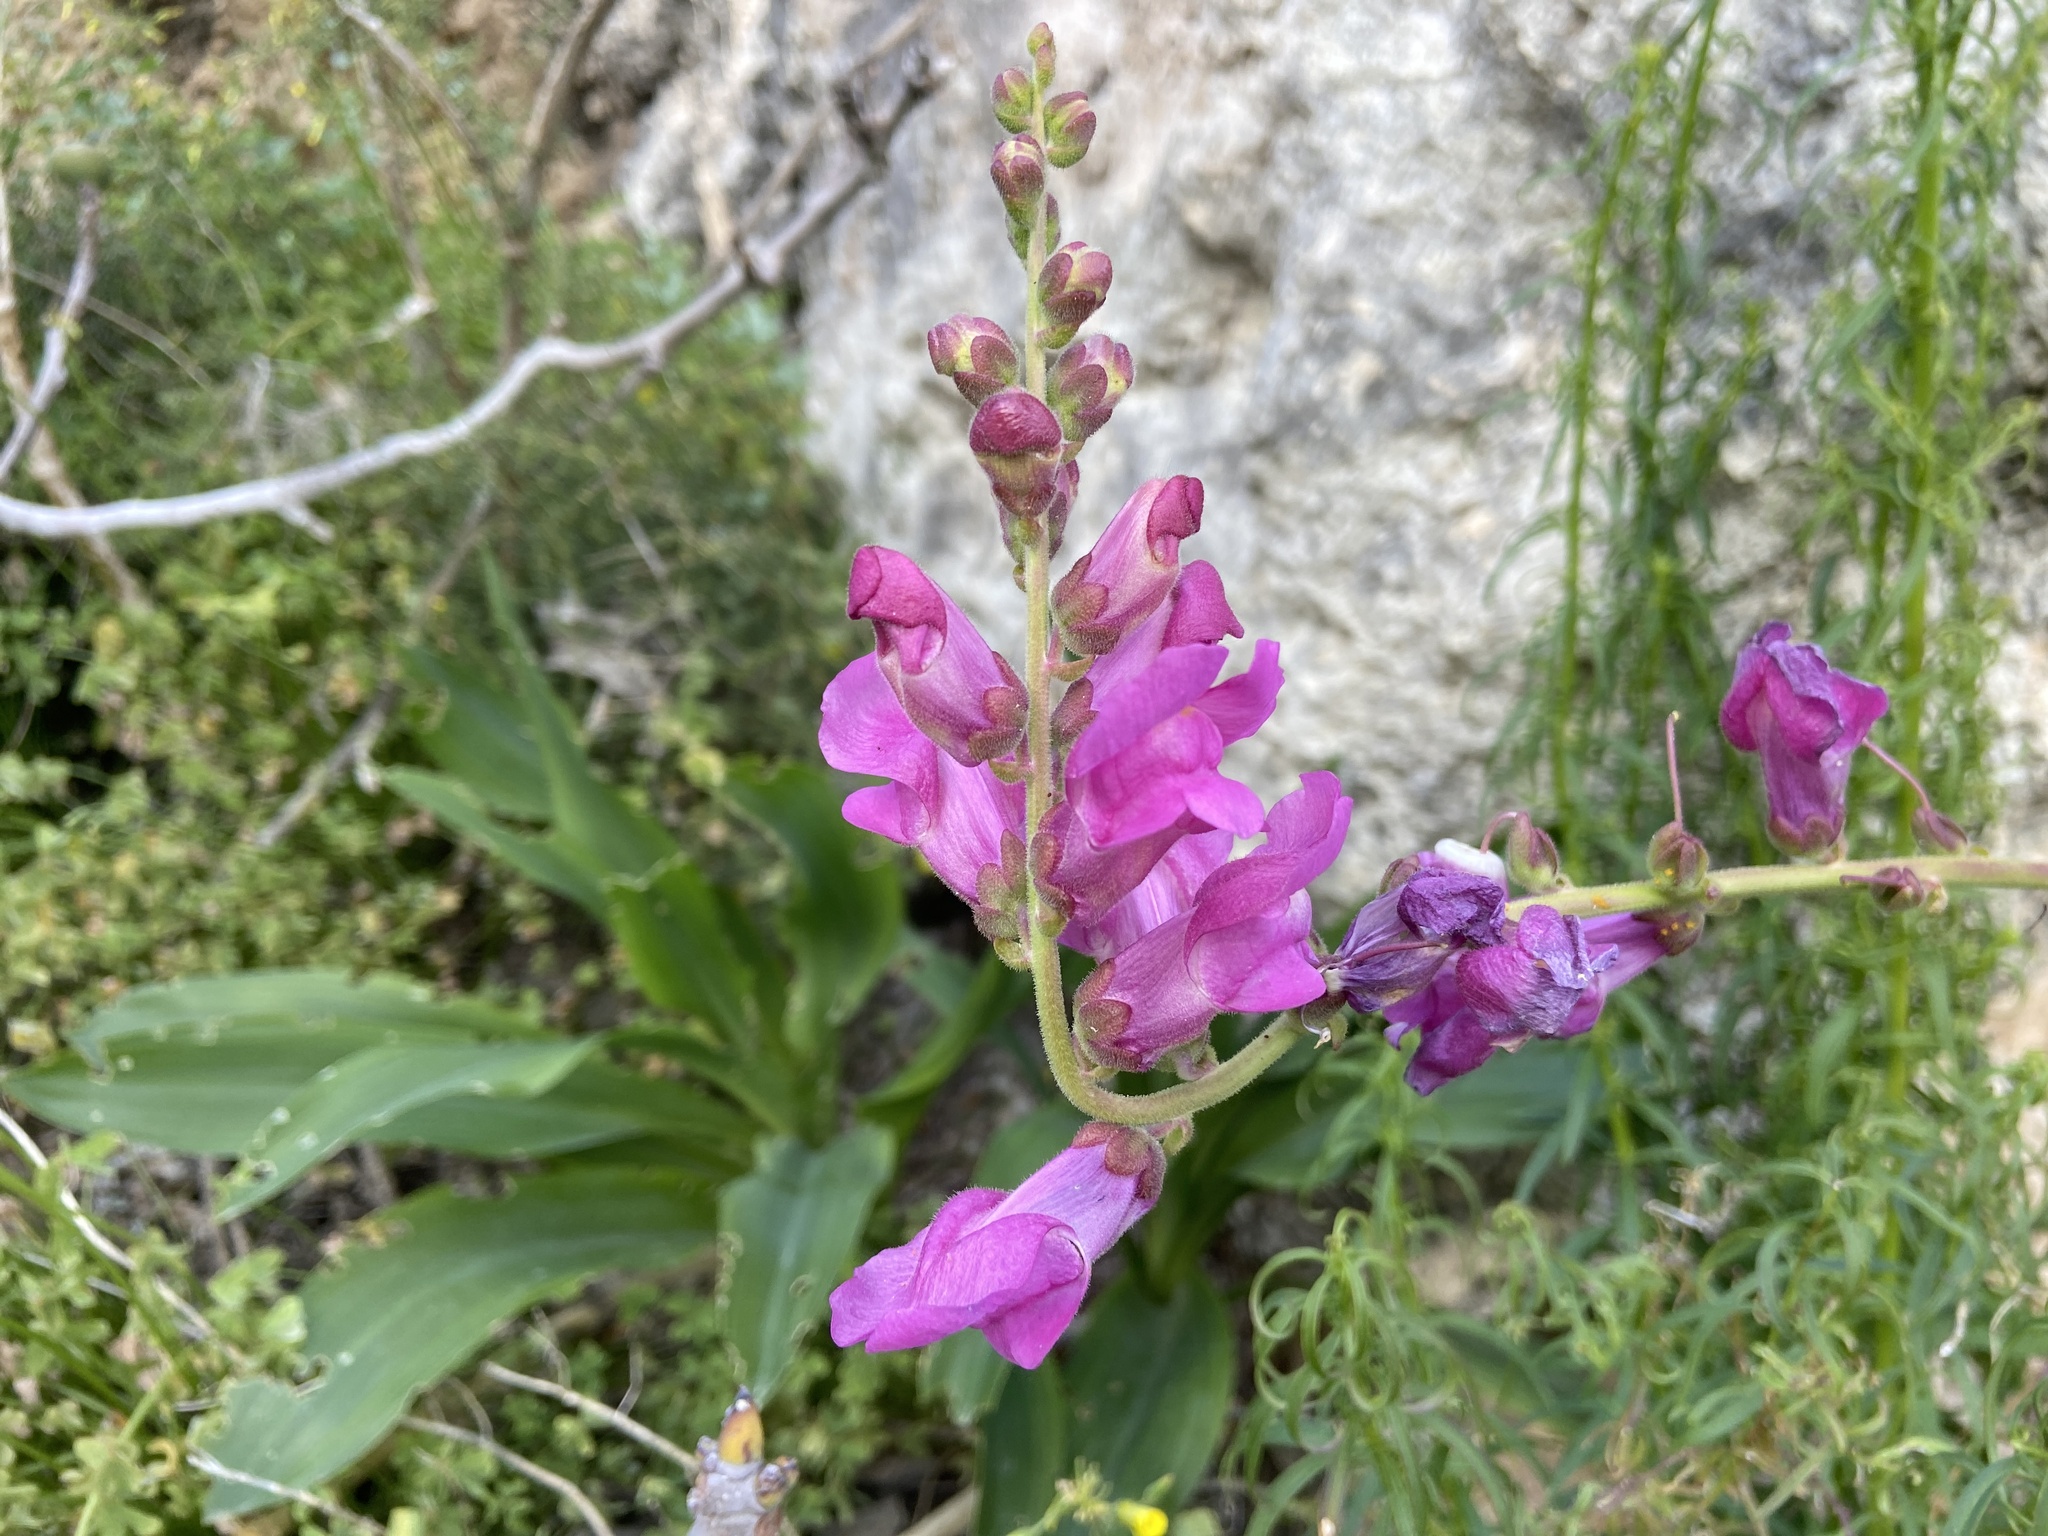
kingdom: Plantae
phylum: Tracheophyta
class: Magnoliopsida
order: Lamiales
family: Plantaginaceae
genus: Antirrhinum
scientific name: Antirrhinum tortuosum
